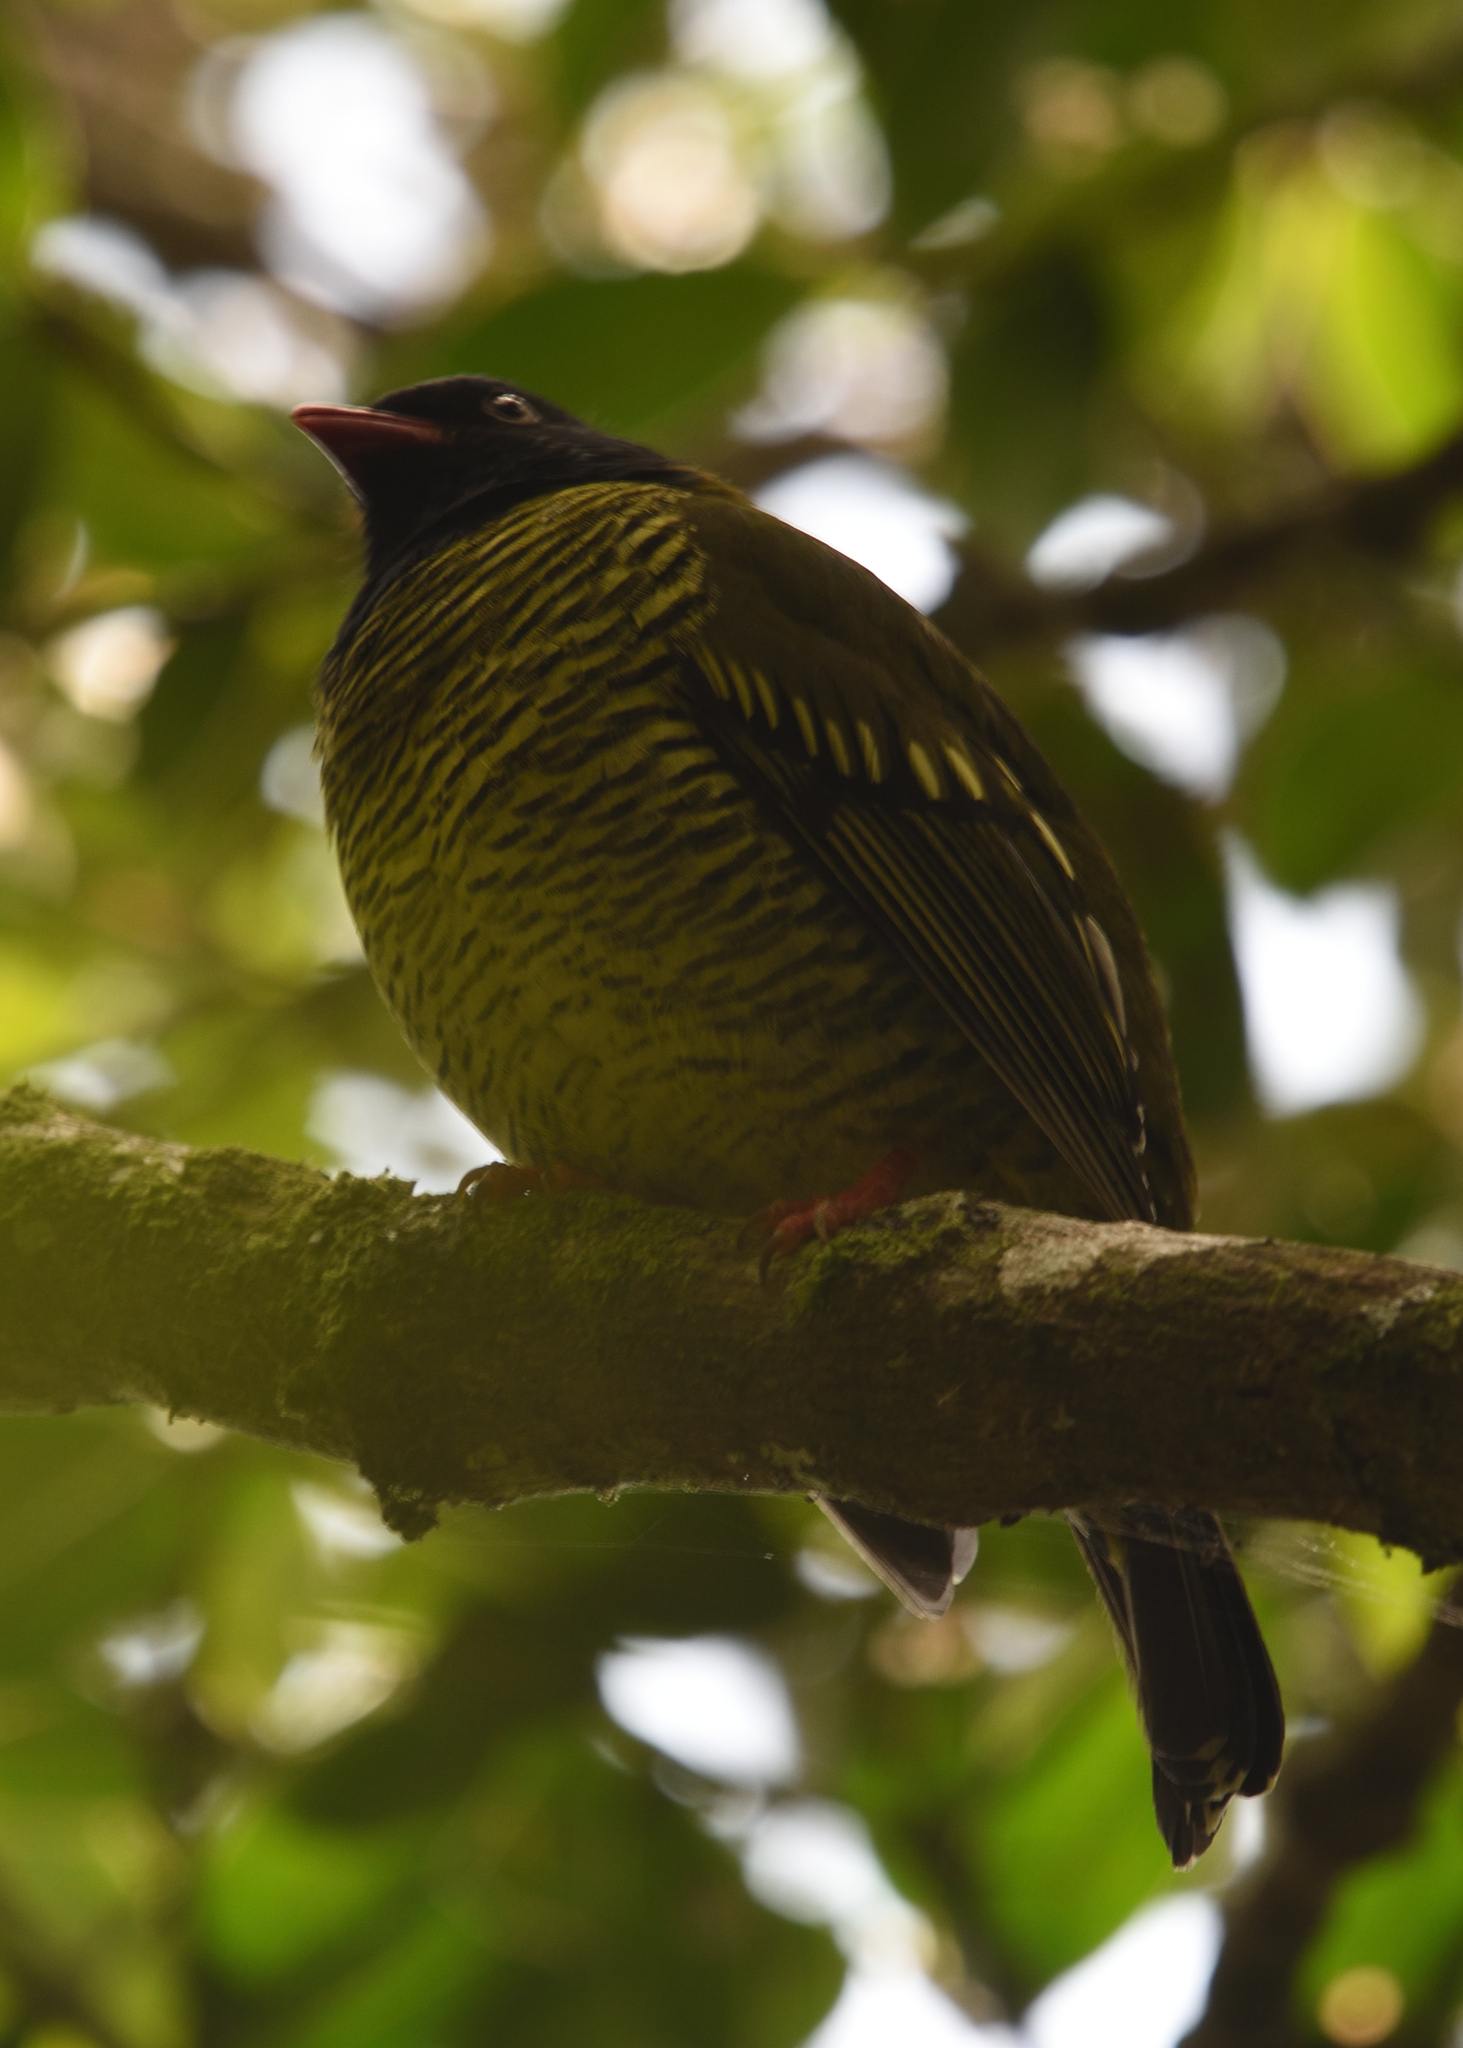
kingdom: Animalia
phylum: Chordata
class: Aves
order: Passeriformes
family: Cotingidae
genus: Pipreola
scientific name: Pipreola arcuata
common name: Barred fruiteater
